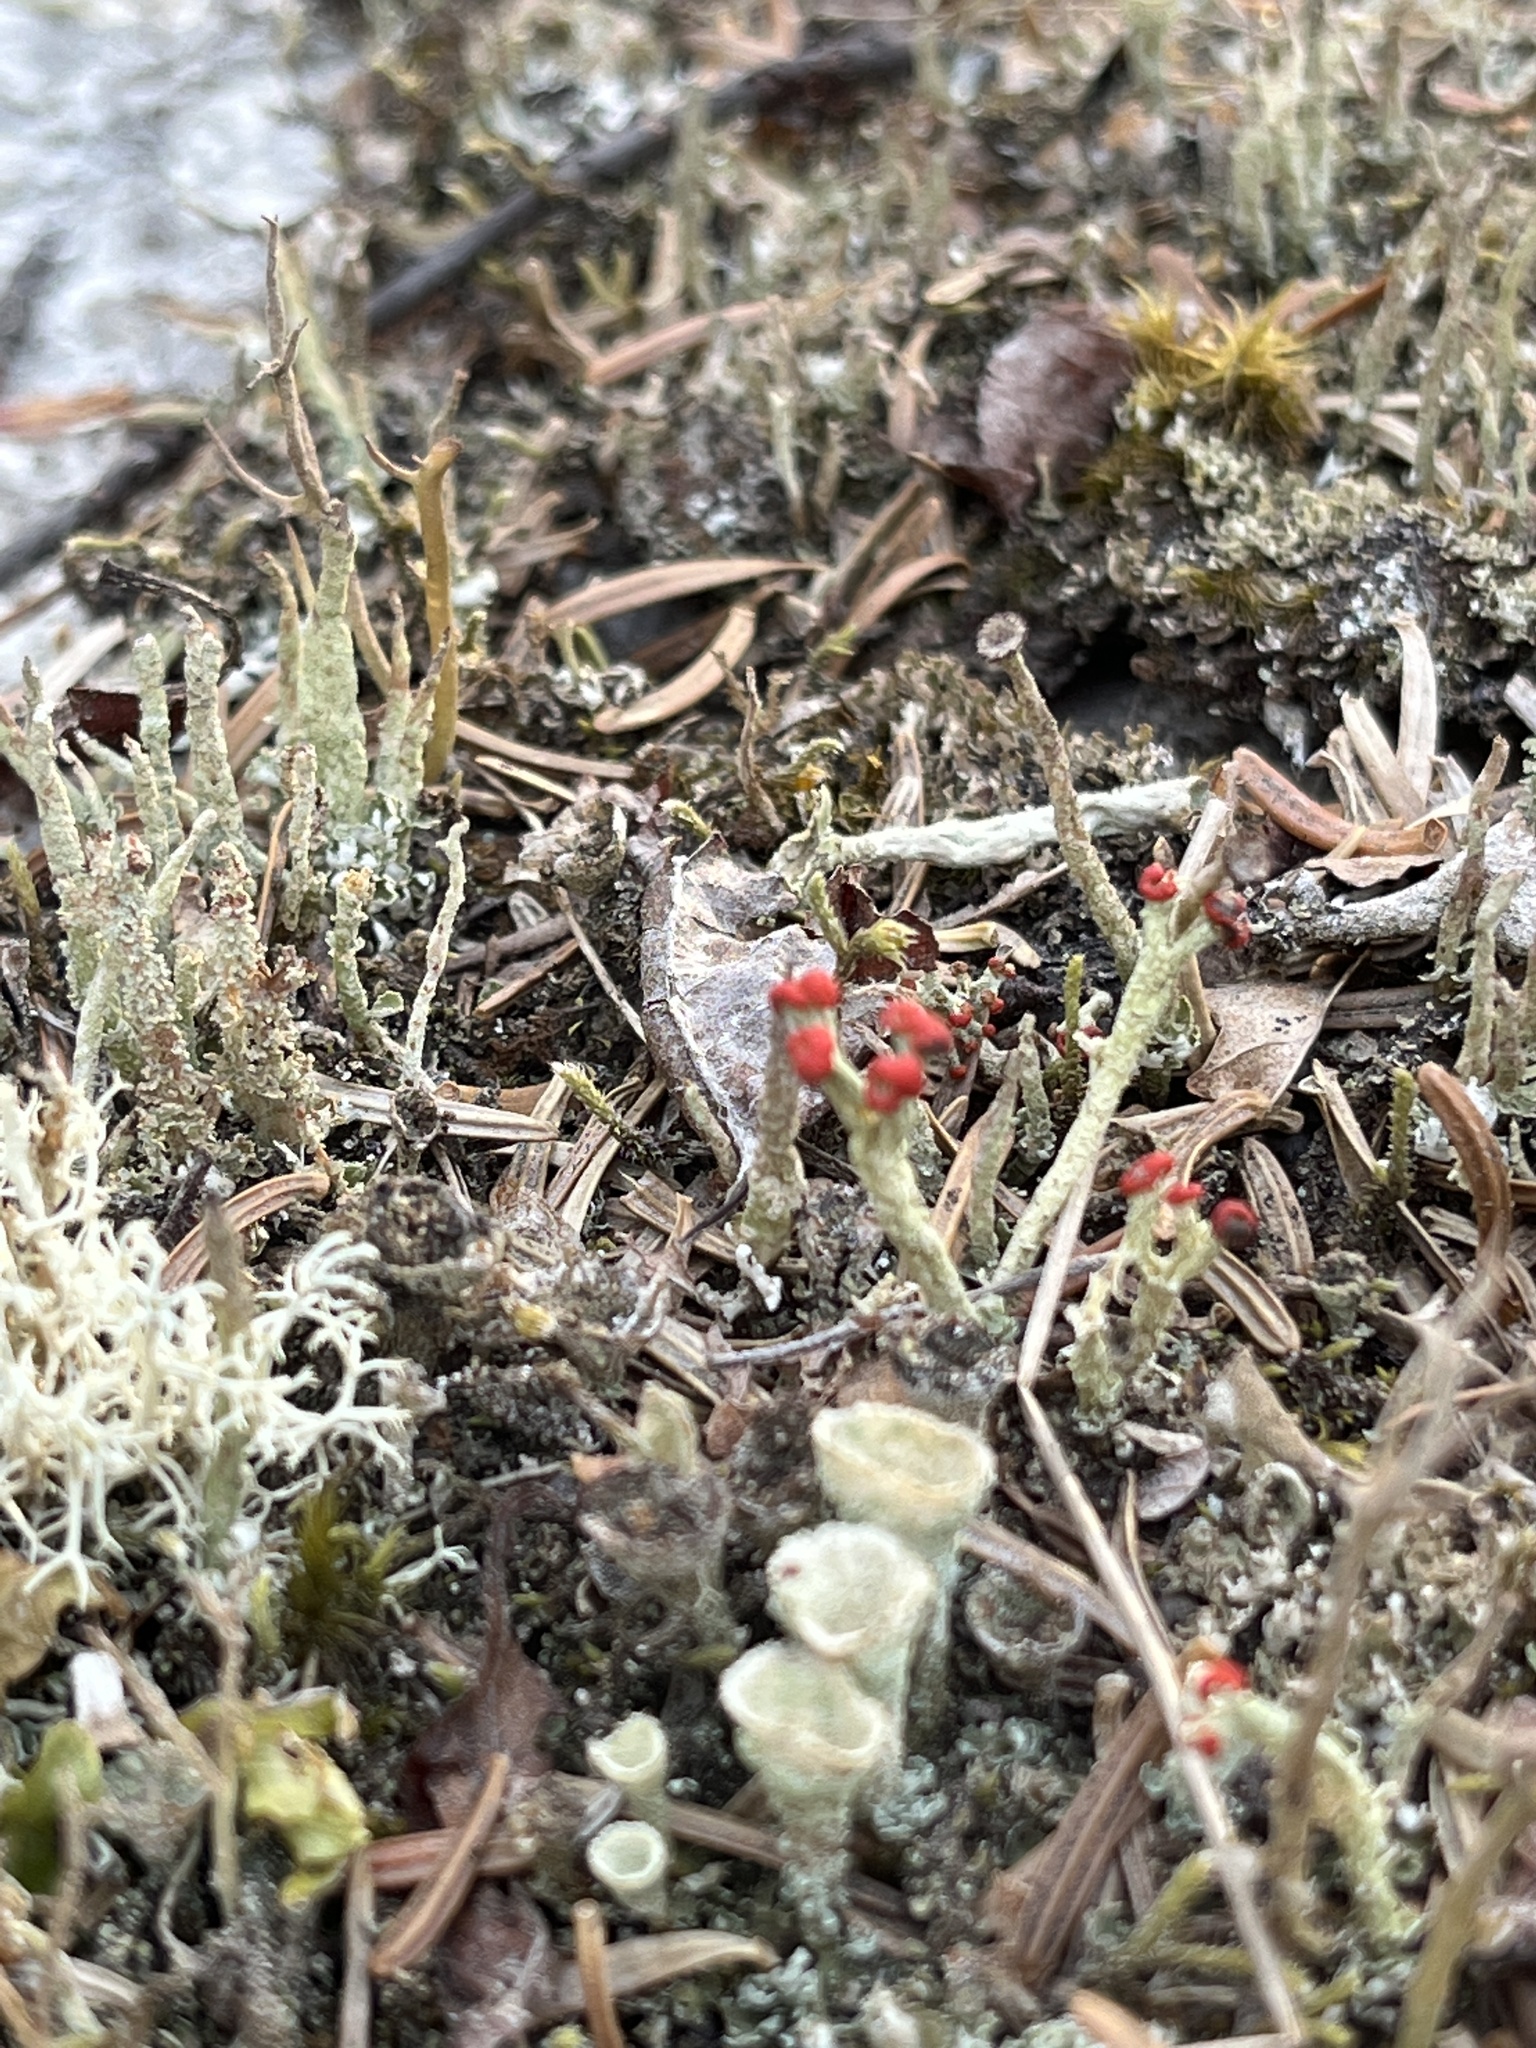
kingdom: Fungi
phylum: Ascomycota
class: Lecanoromycetes
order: Lecanorales
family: Cladoniaceae
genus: Cladonia
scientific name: Cladonia cristatella
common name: British soldier lichen
